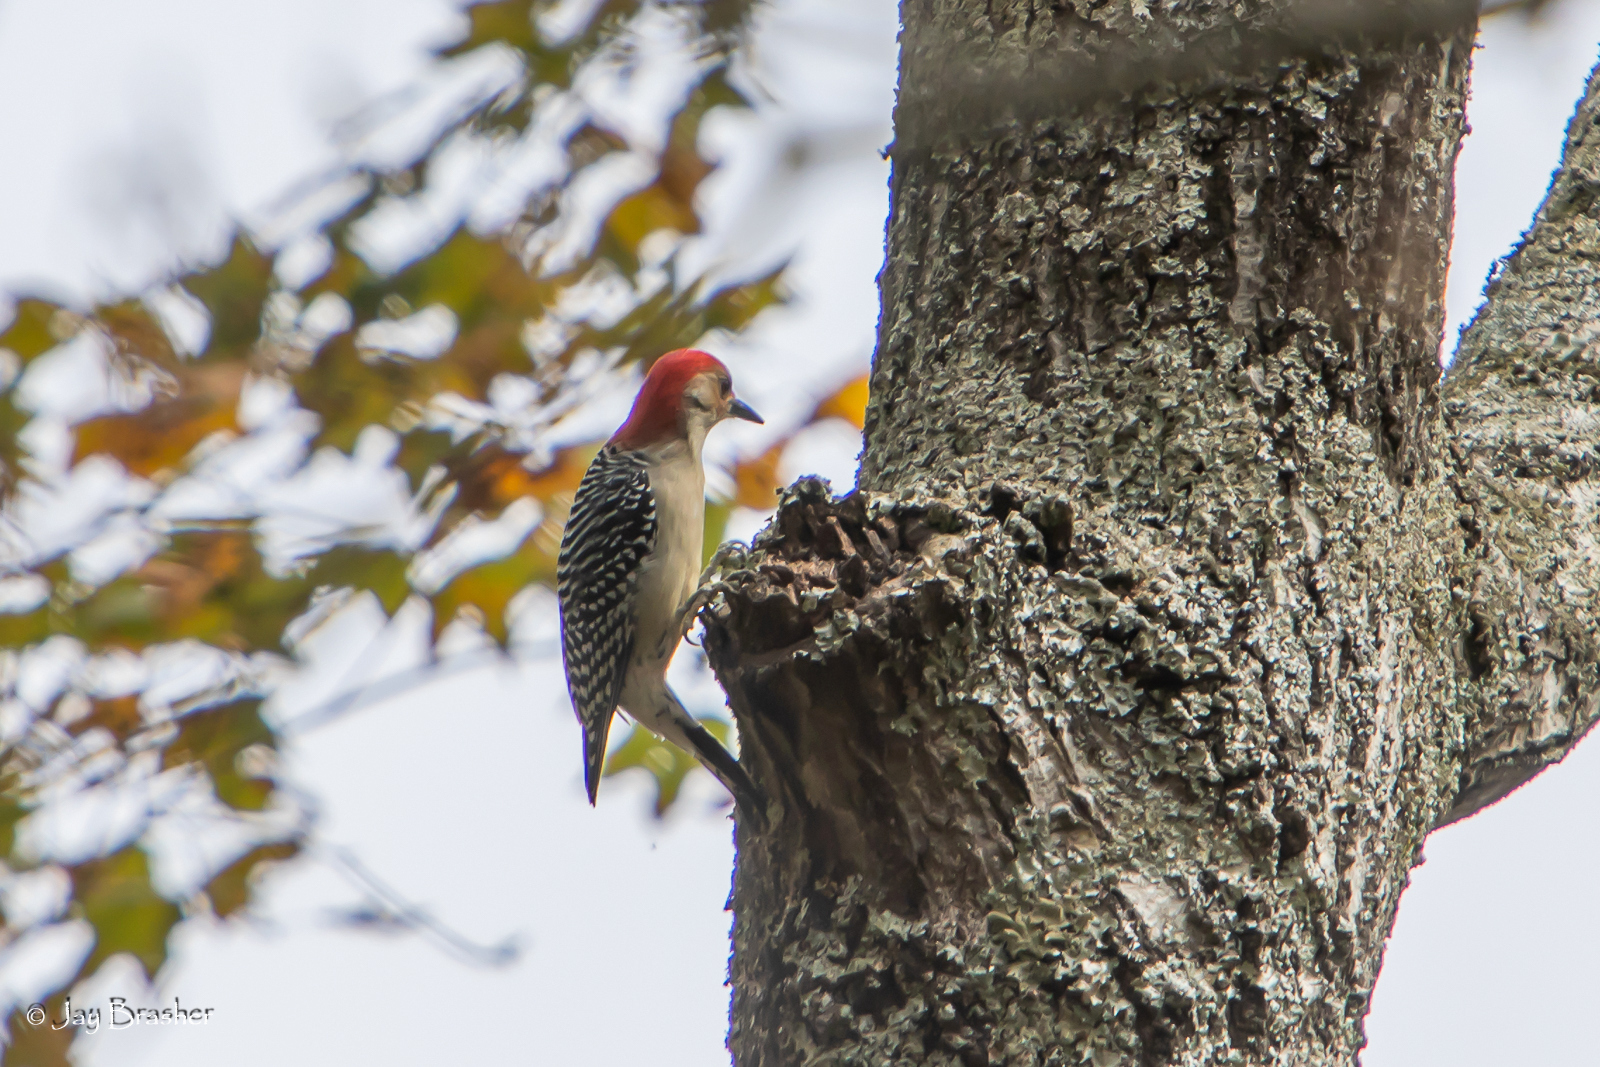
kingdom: Animalia
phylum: Chordata
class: Aves
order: Piciformes
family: Picidae
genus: Melanerpes
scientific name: Melanerpes carolinus
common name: Red-bellied woodpecker
